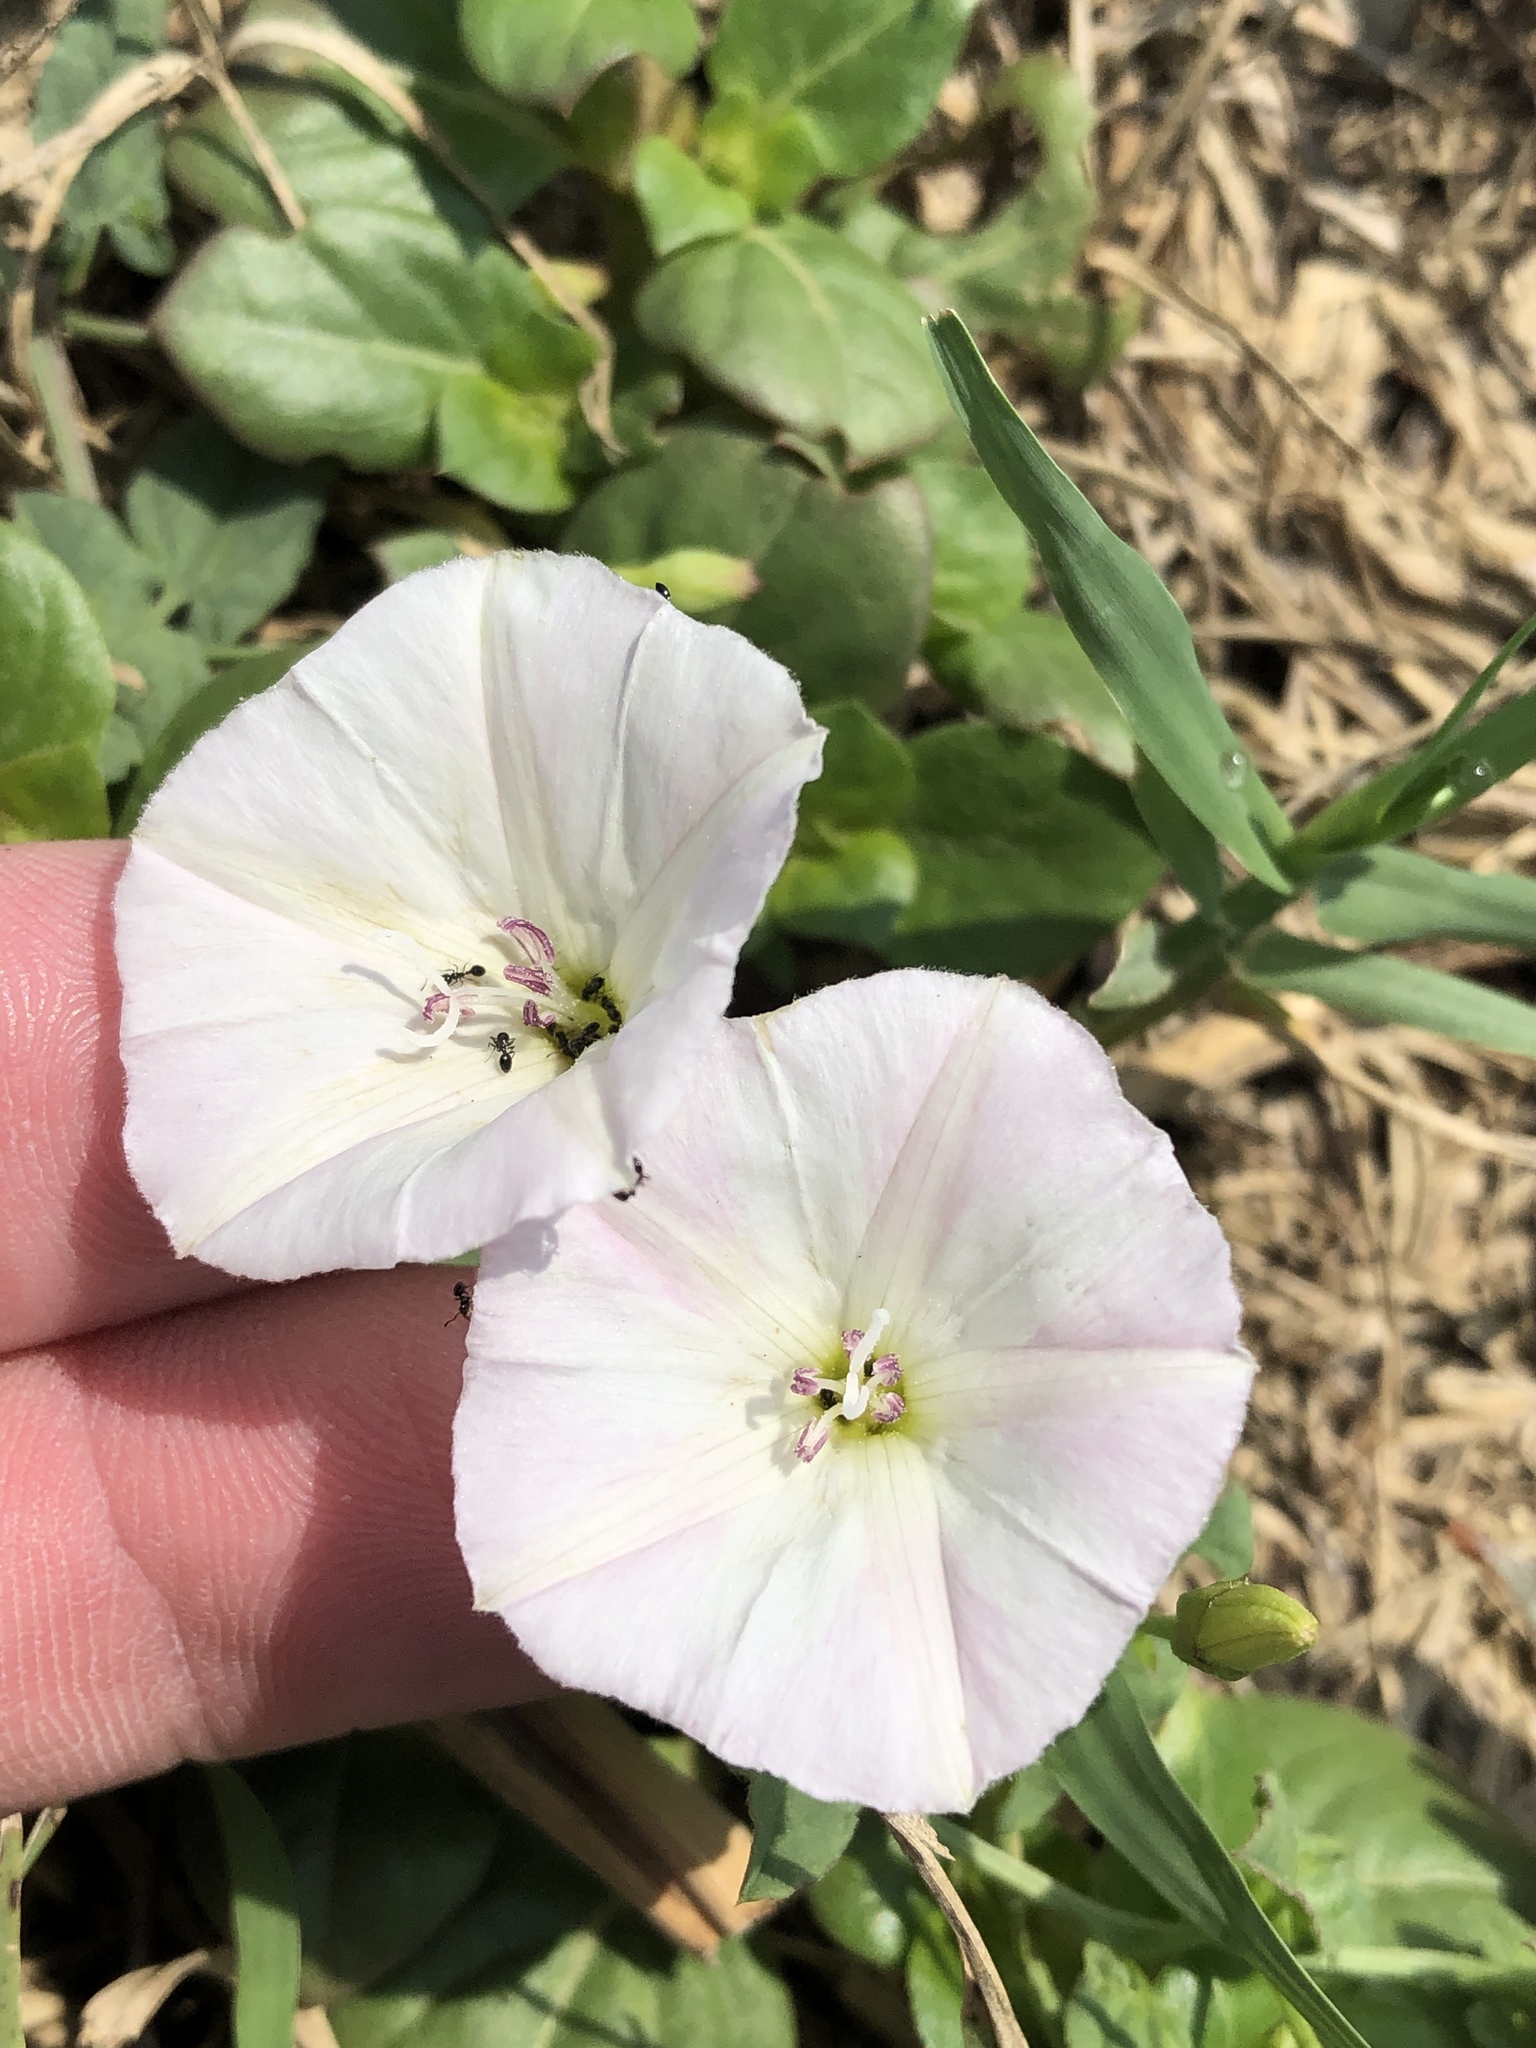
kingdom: Plantae
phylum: Tracheophyta
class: Magnoliopsida
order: Solanales
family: Convolvulaceae
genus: Convolvulus
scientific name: Convolvulus arvensis
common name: Field bindweed
